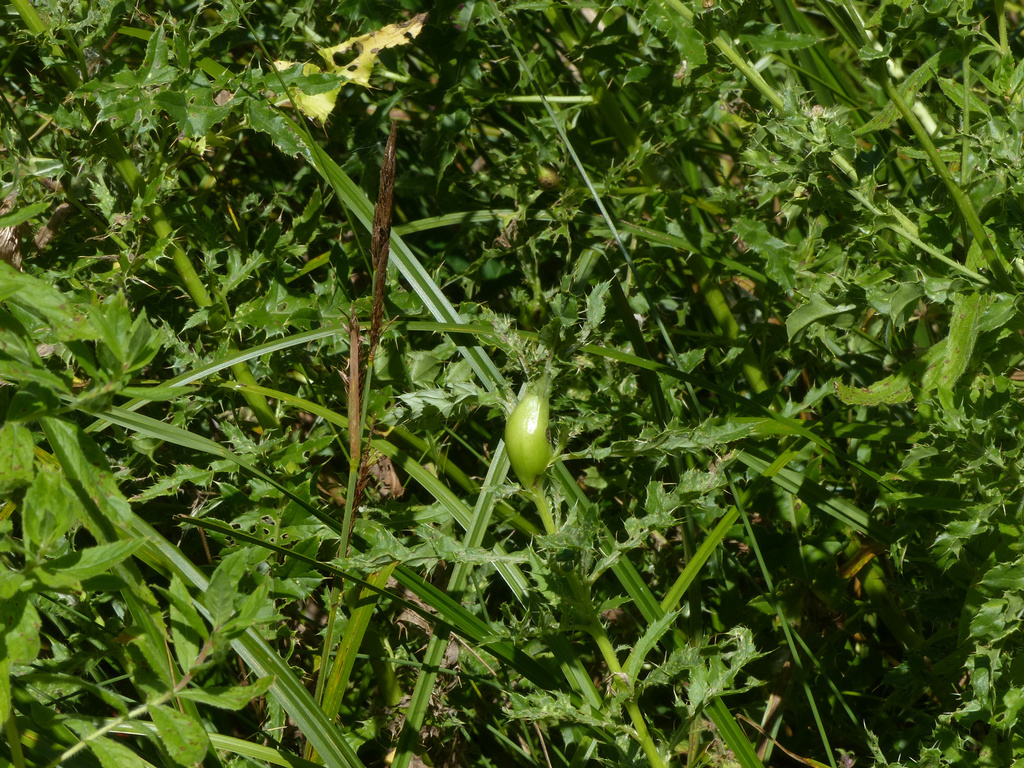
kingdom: Animalia
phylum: Arthropoda
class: Insecta
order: Diptera
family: Tephritidae
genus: Urophora
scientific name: Urophora cardui
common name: Fruit fly
